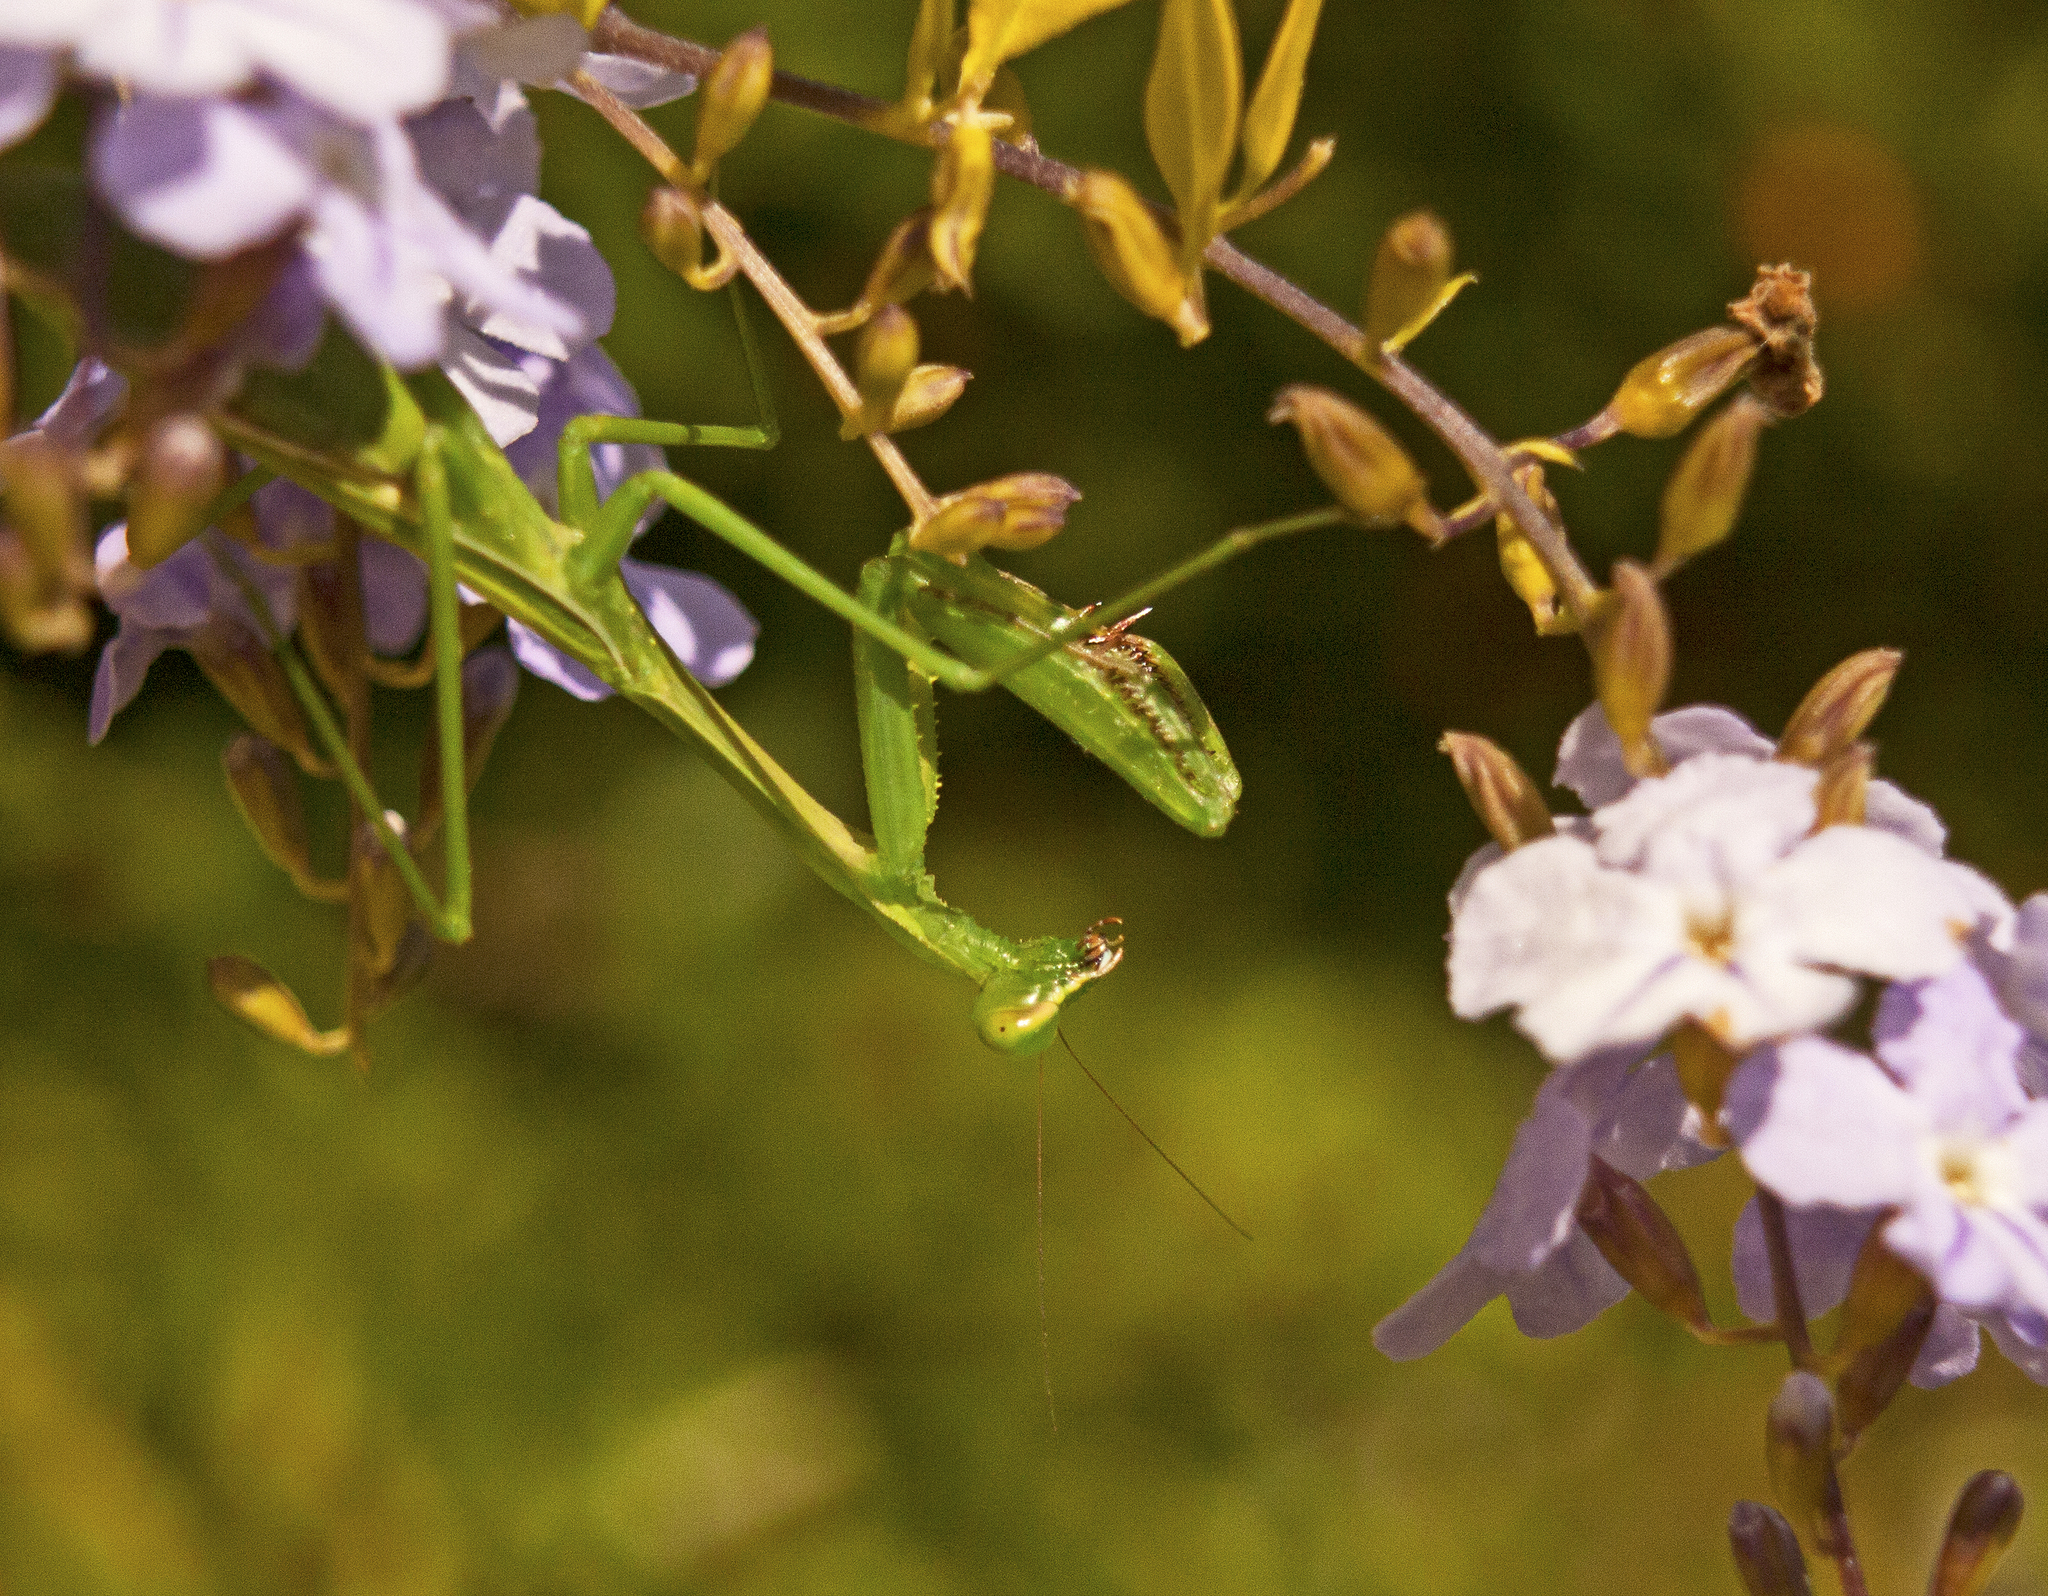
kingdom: Animalia
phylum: Arthropoda
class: Insecta
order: Mantodea
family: Mantidae
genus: Pseudomantis
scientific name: Pseudomantis albofimbriata
